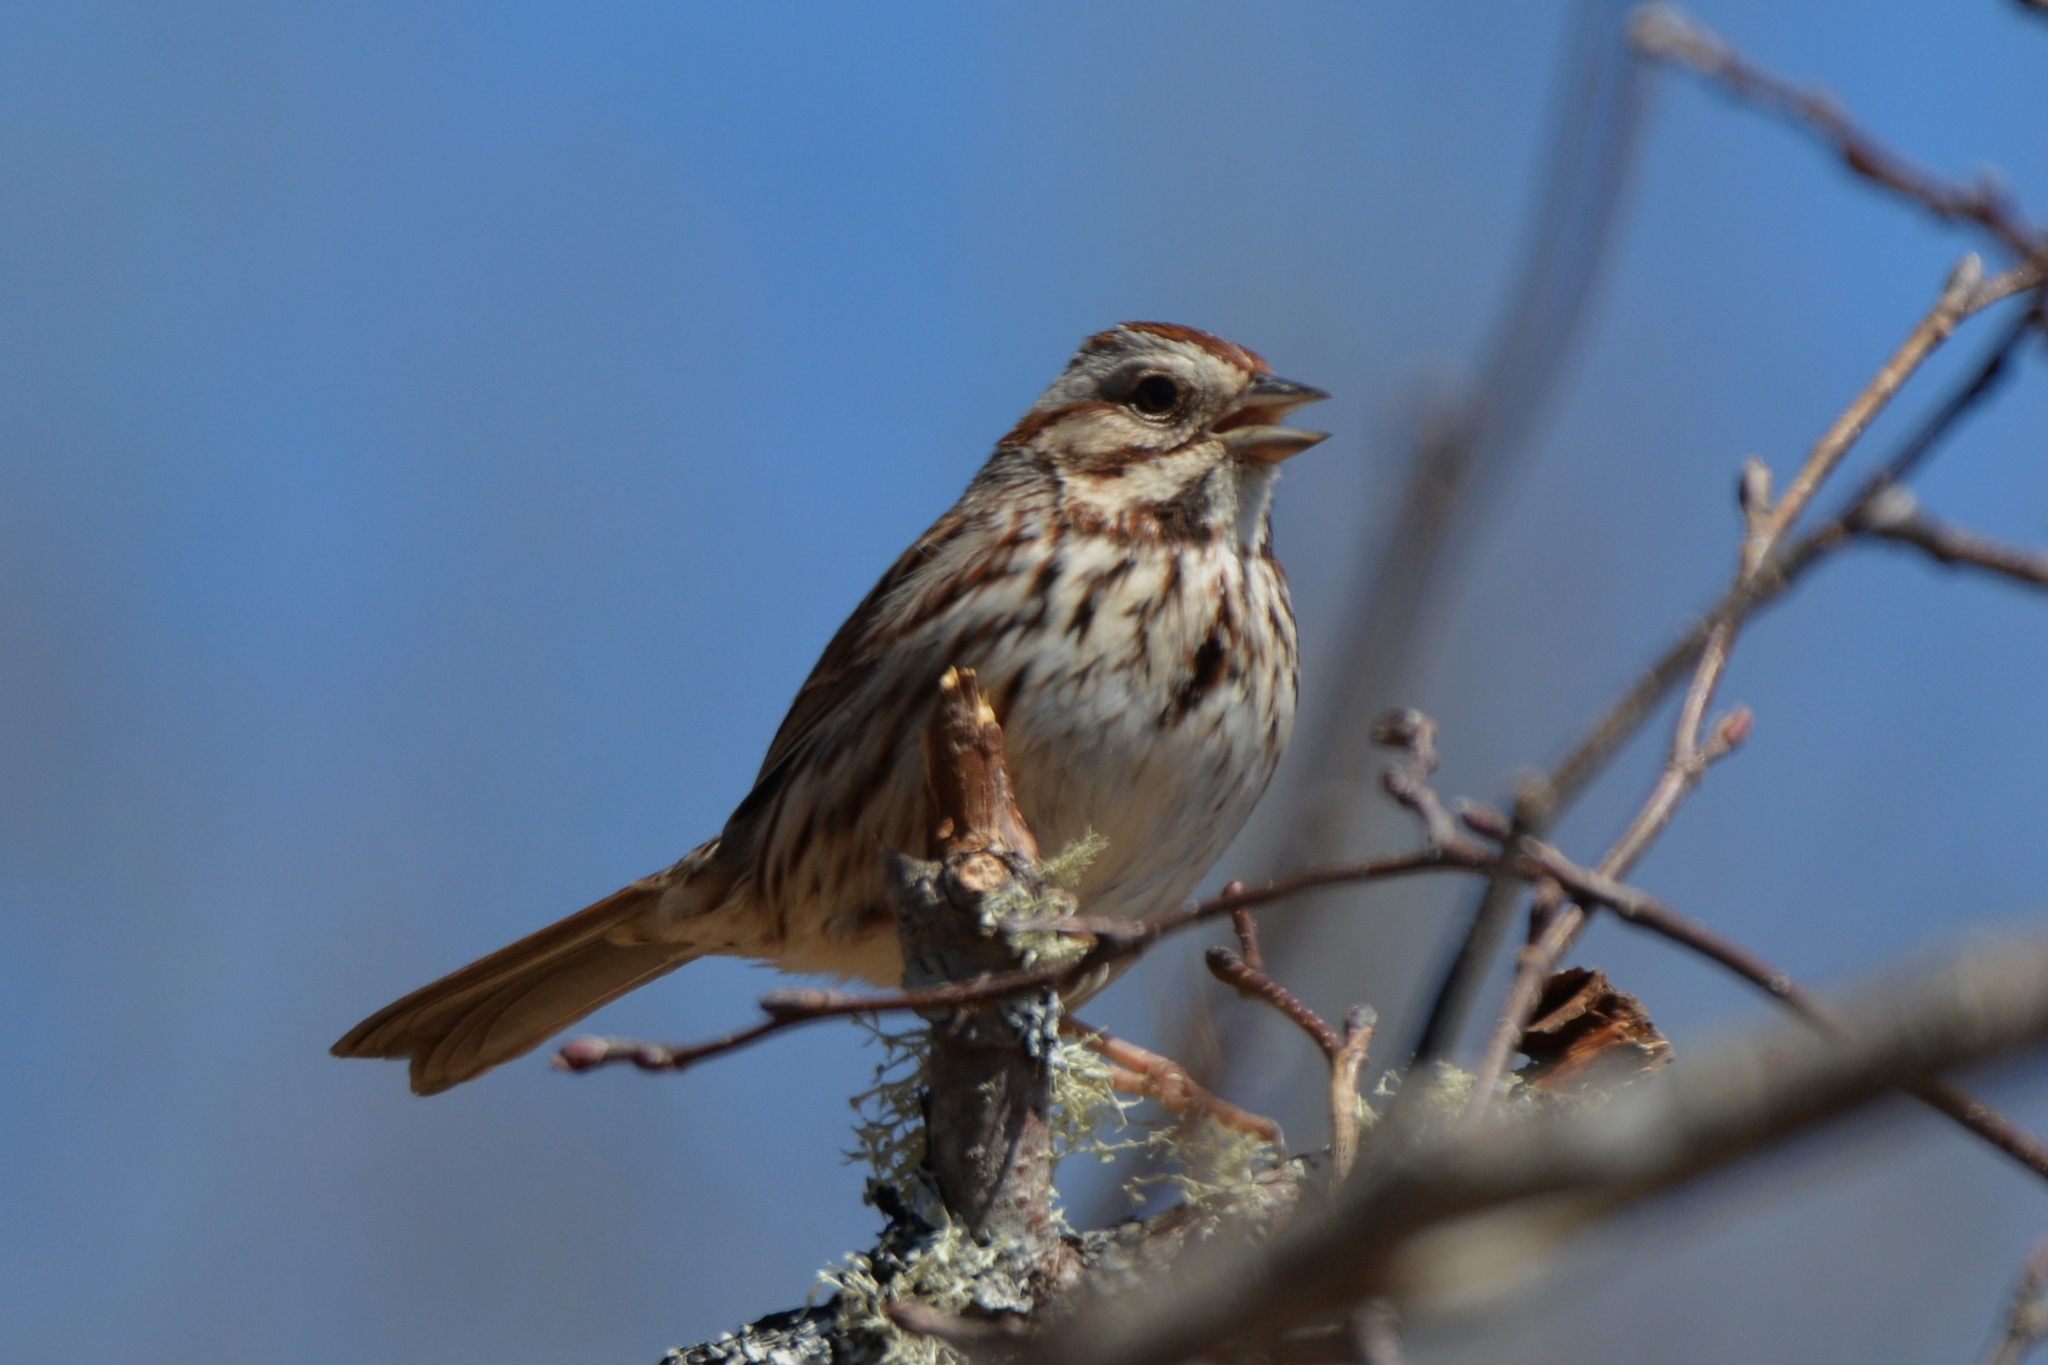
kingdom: Animalia
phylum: Chordata
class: Aves
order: Passeriformes
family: Passerellidae
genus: Melospiza
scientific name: Melospiza melodia
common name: Song sparrow
